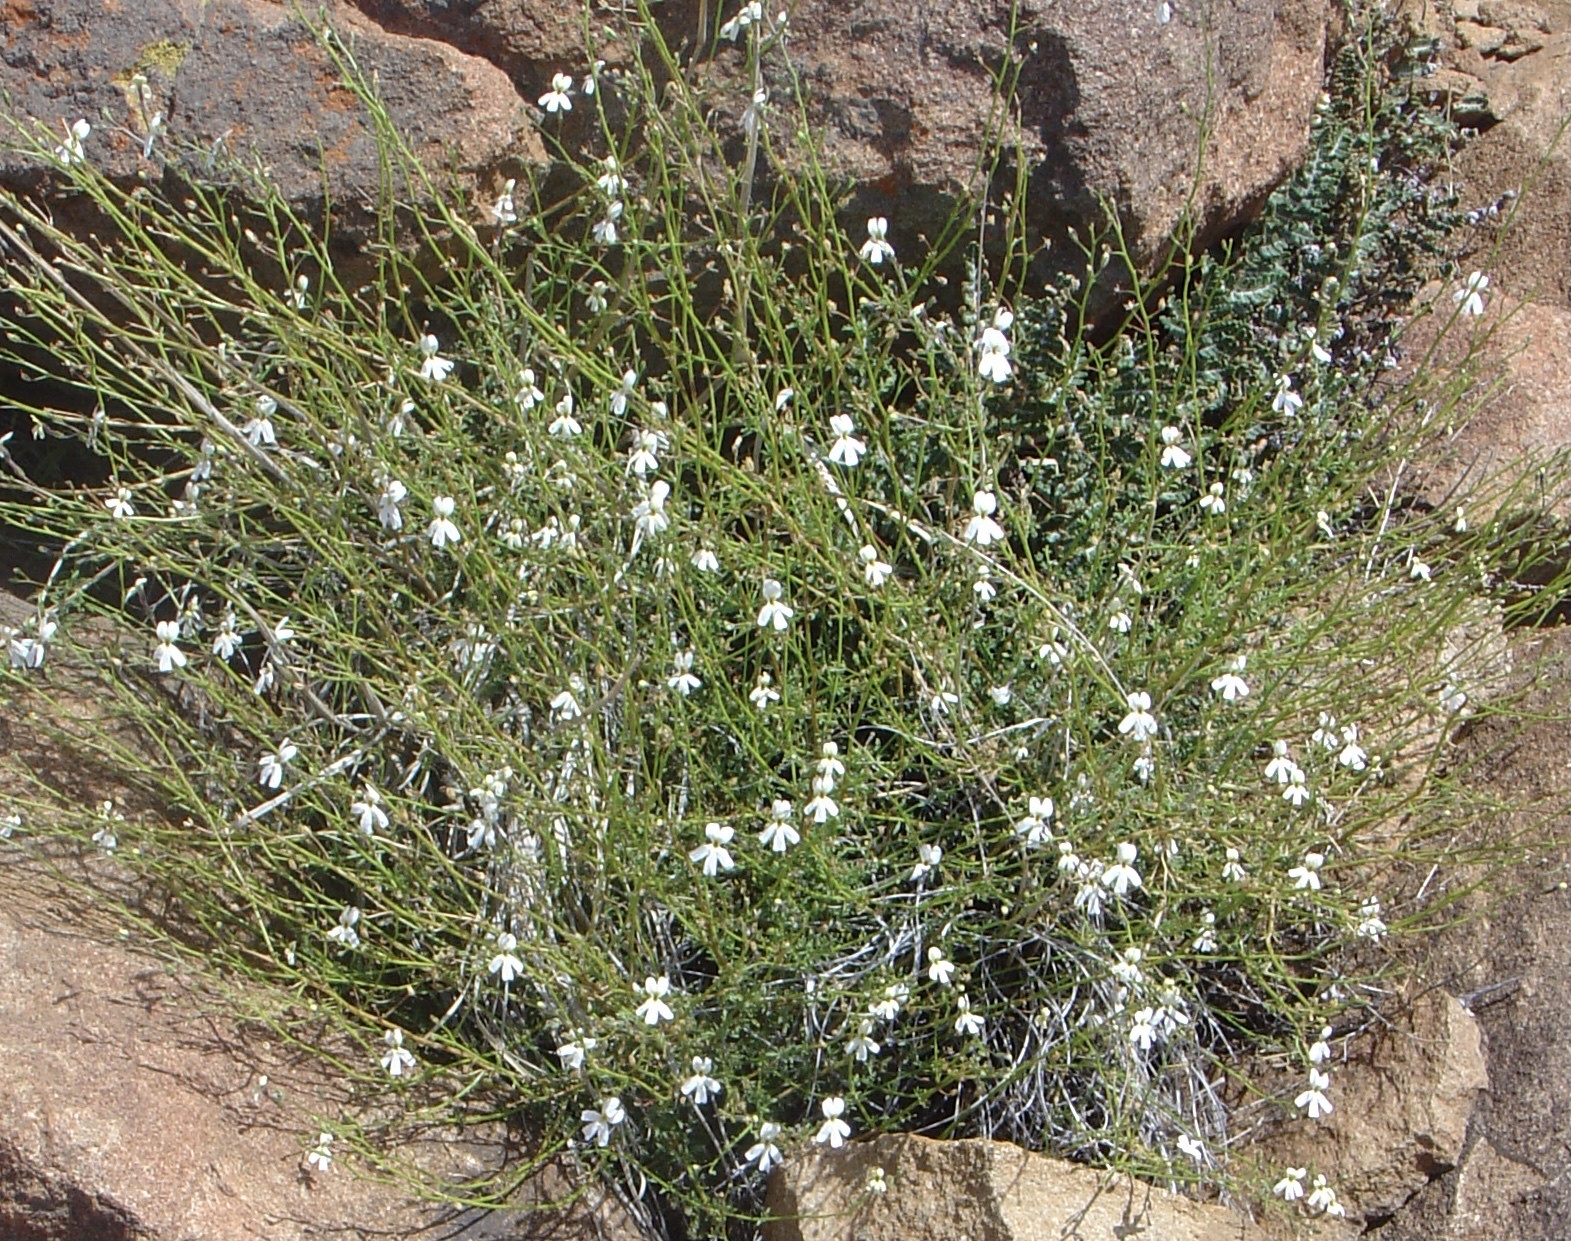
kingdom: Plantae
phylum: Tracheophyta
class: Magnoliopsida
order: Lamiales
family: Scrophulariaceae
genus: Jamesbrittenia
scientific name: Jamesbrittenia tysonii
